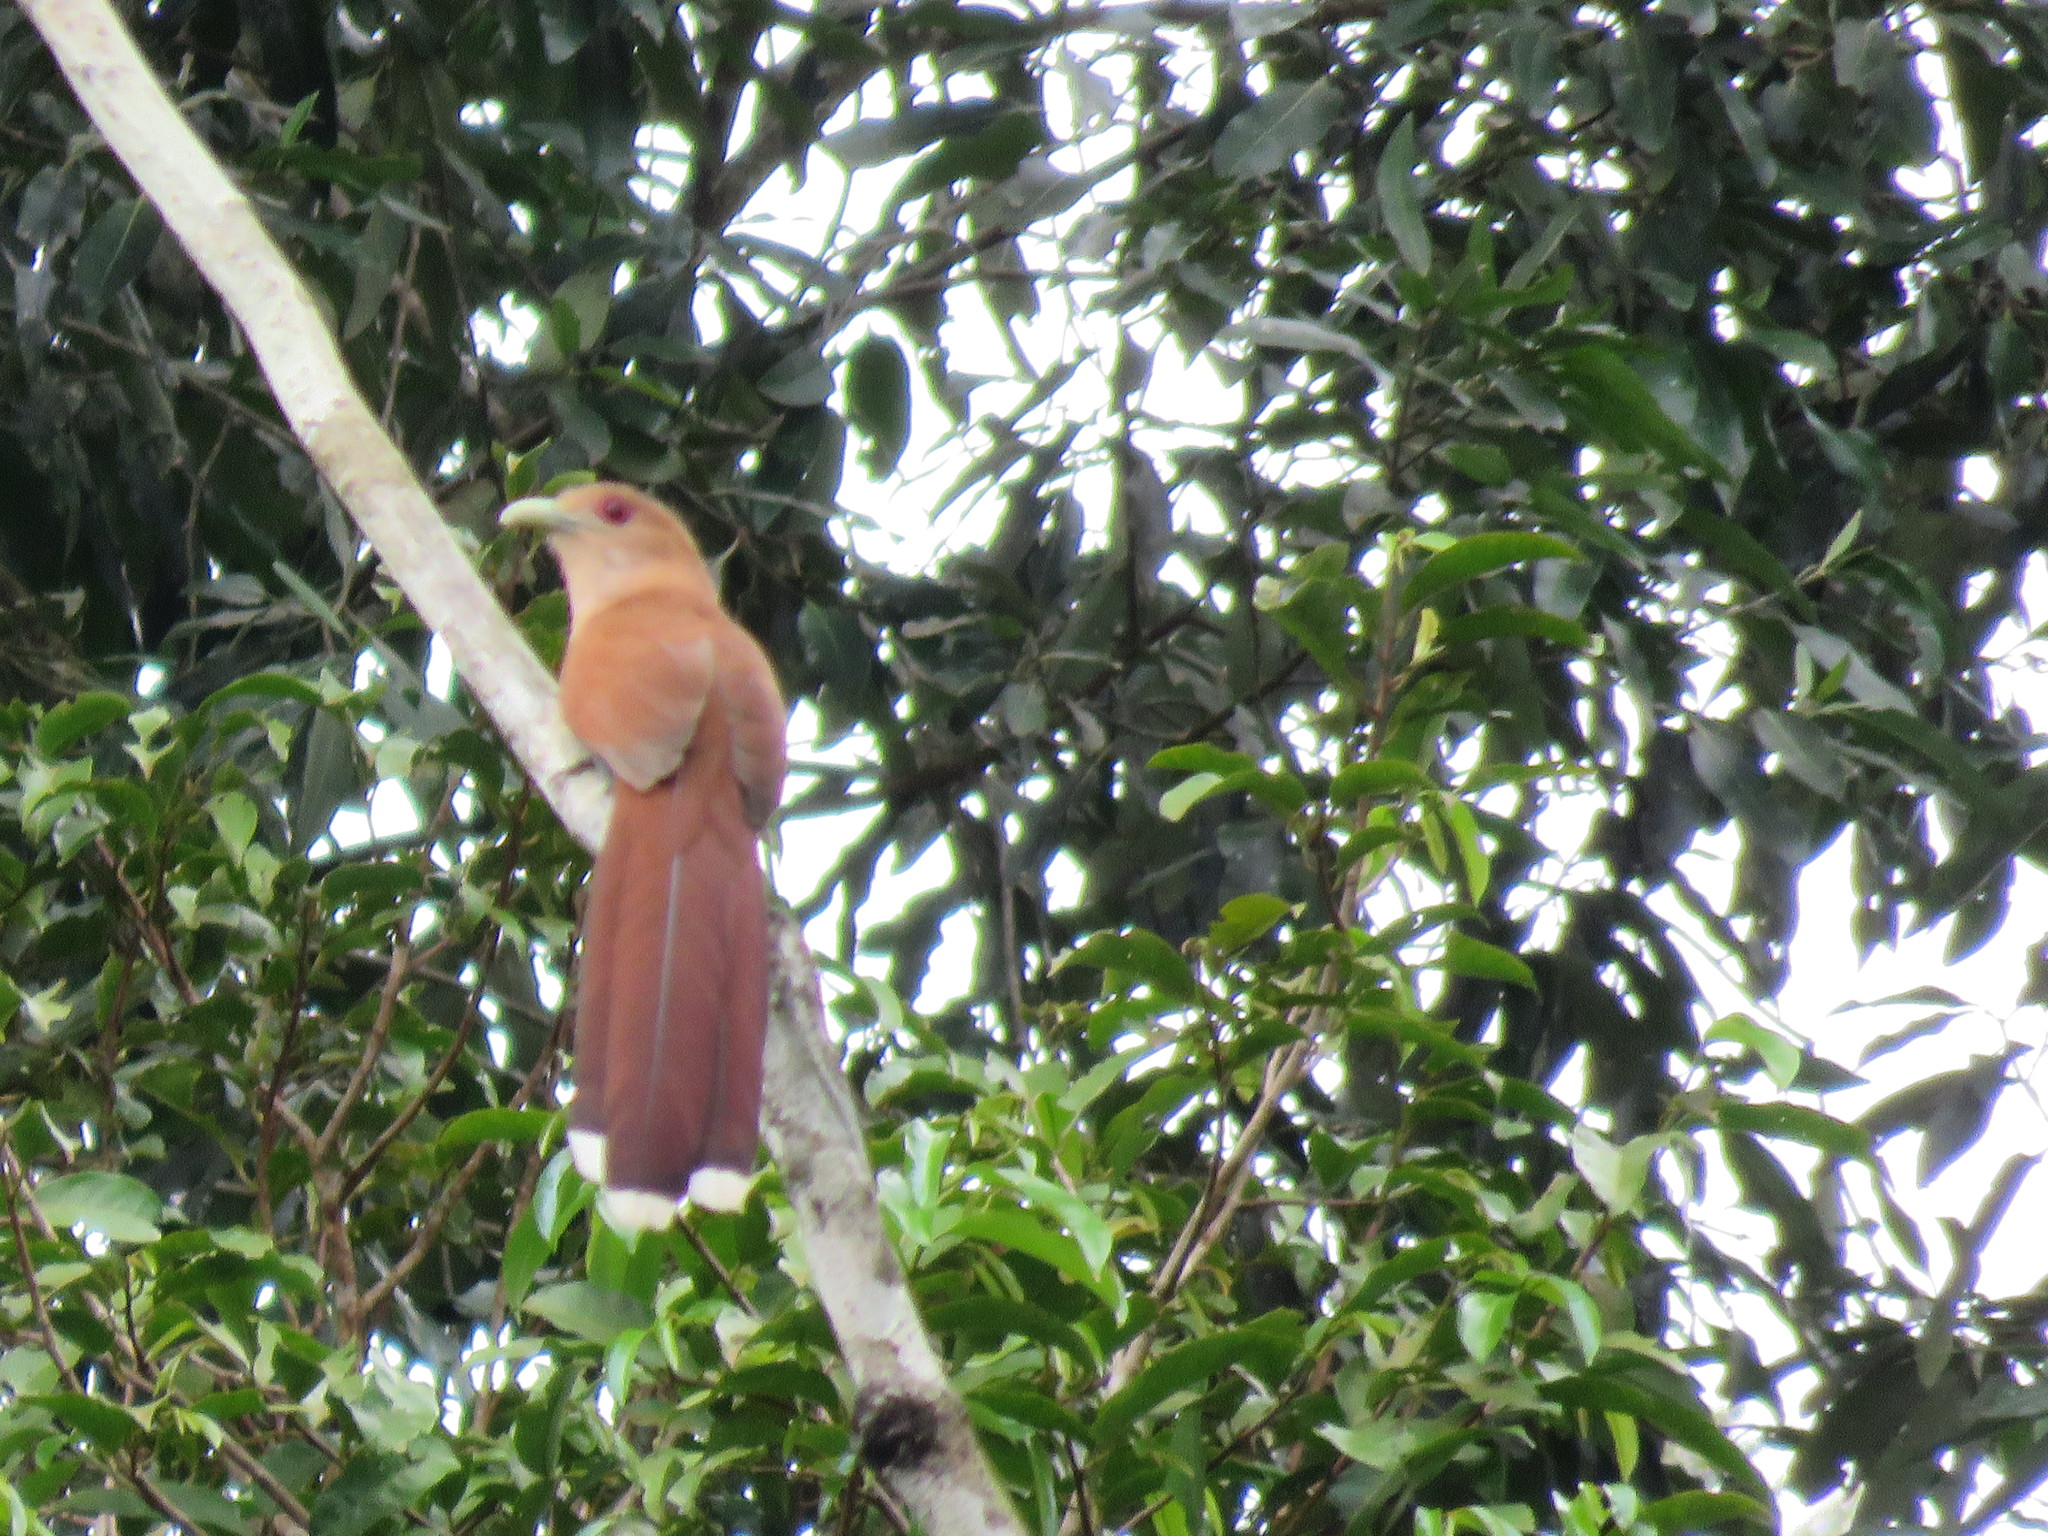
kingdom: Animalia
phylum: Chordata
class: Aves
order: Cuculiformes
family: Cuculidae
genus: Piaya
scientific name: Piaya cayana
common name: Squirrel cuckoo
